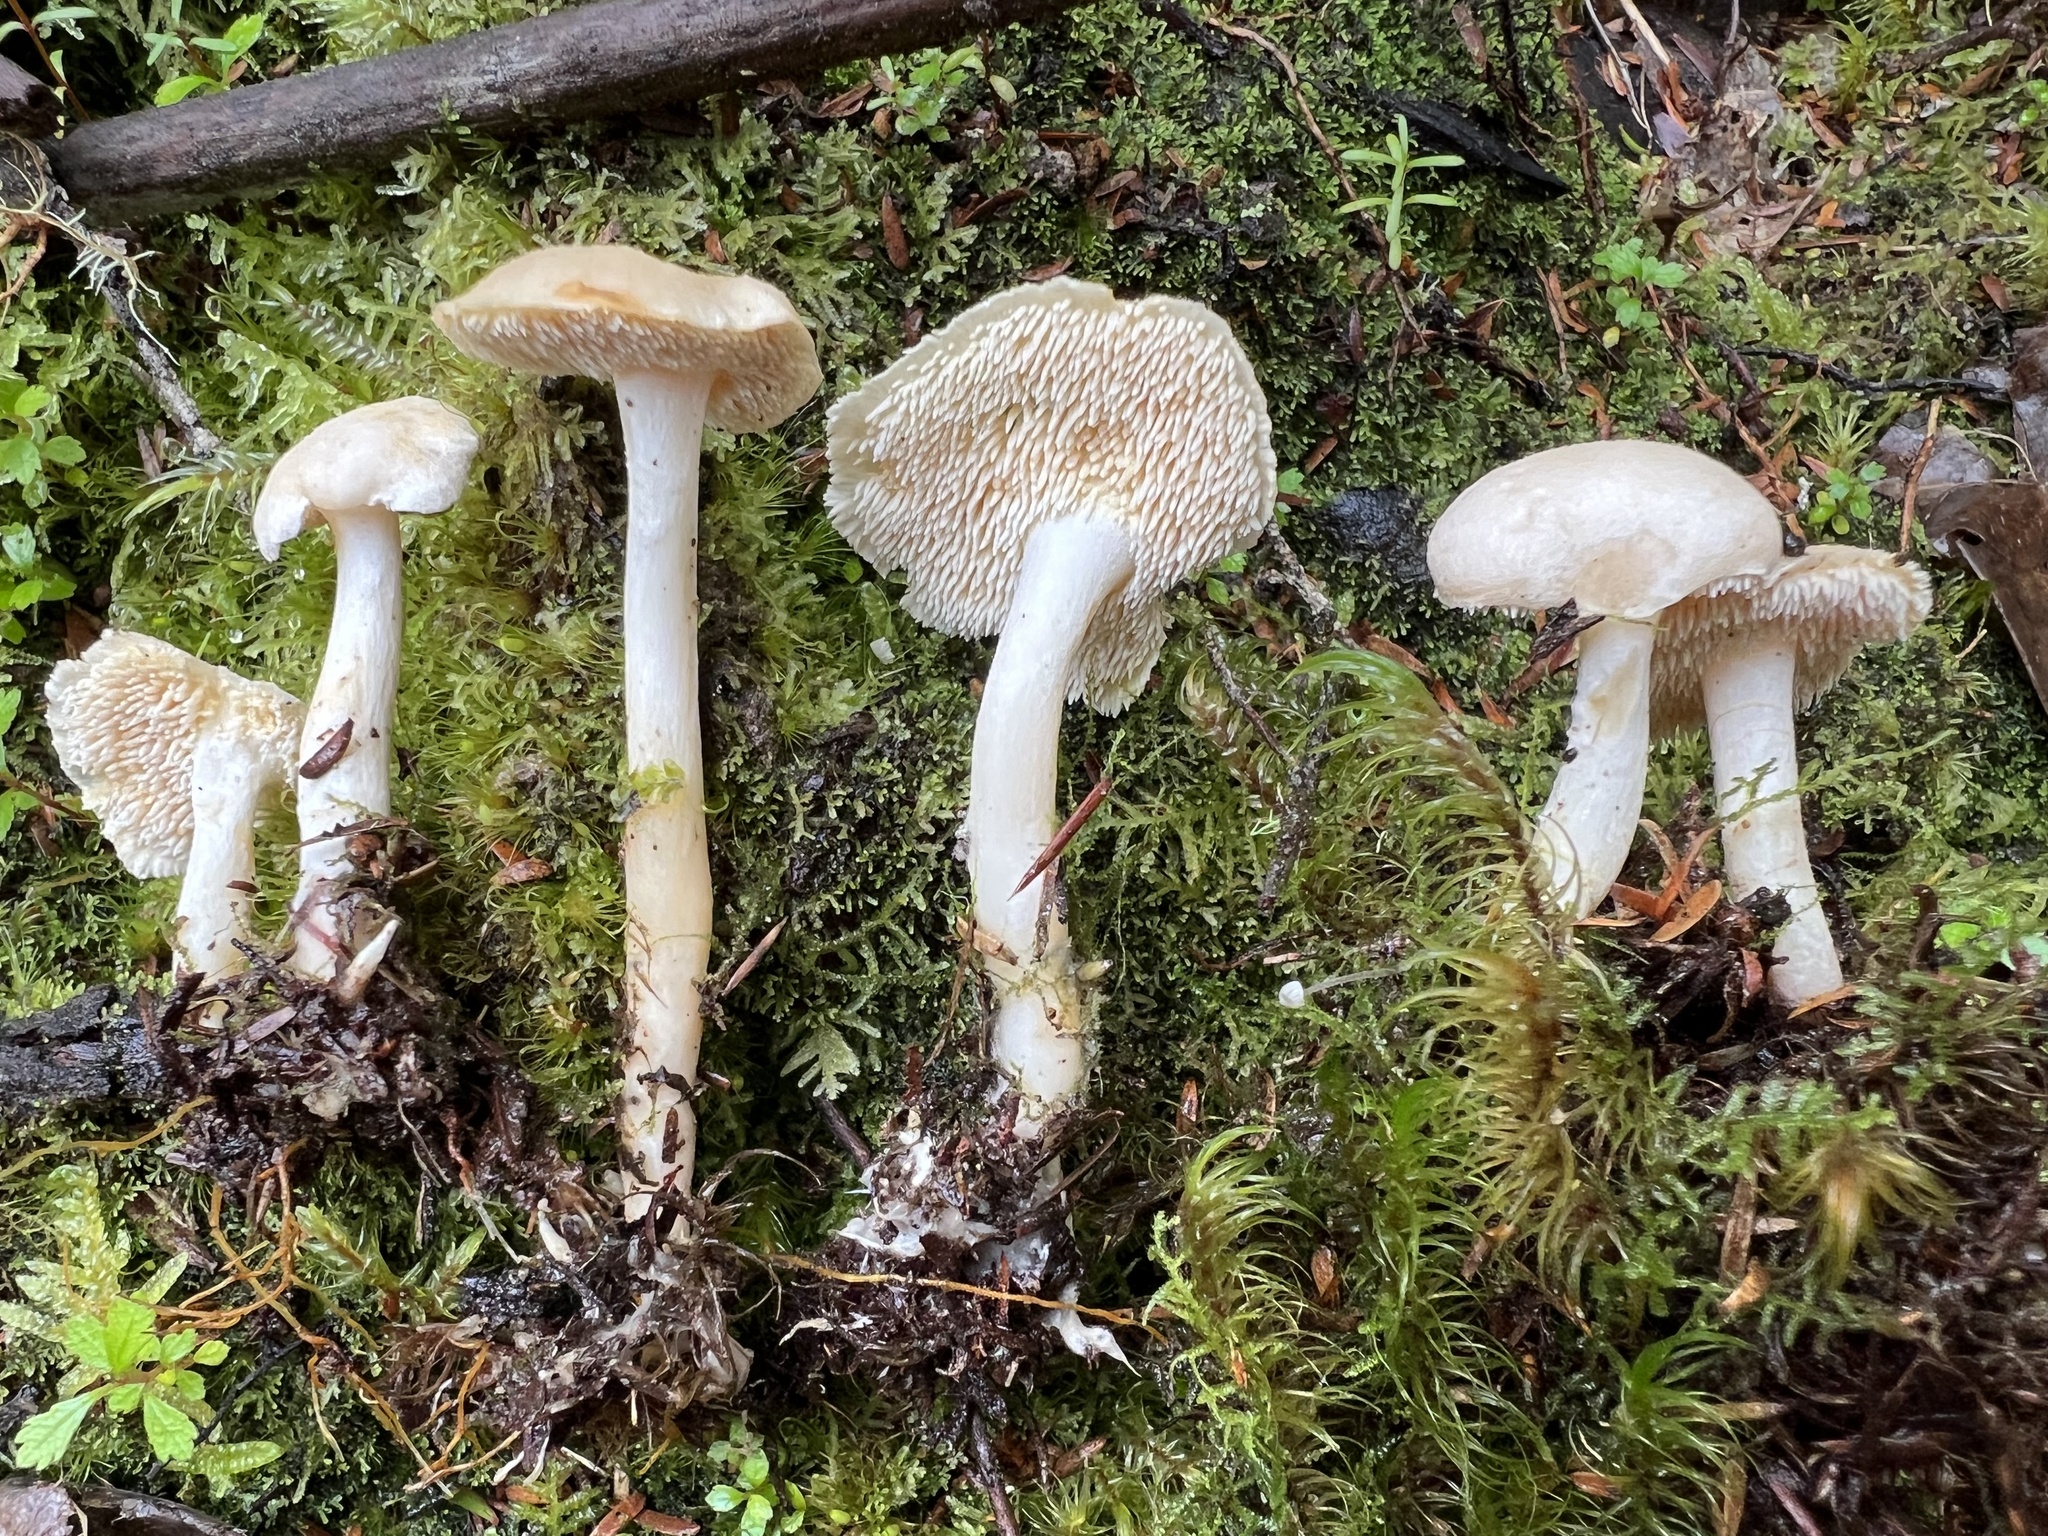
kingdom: Fungi
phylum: Basidiomycota
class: Agaricomycetes
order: Cantharellales
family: Hydnaceae
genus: Hydnum
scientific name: Hydnum ambustum
